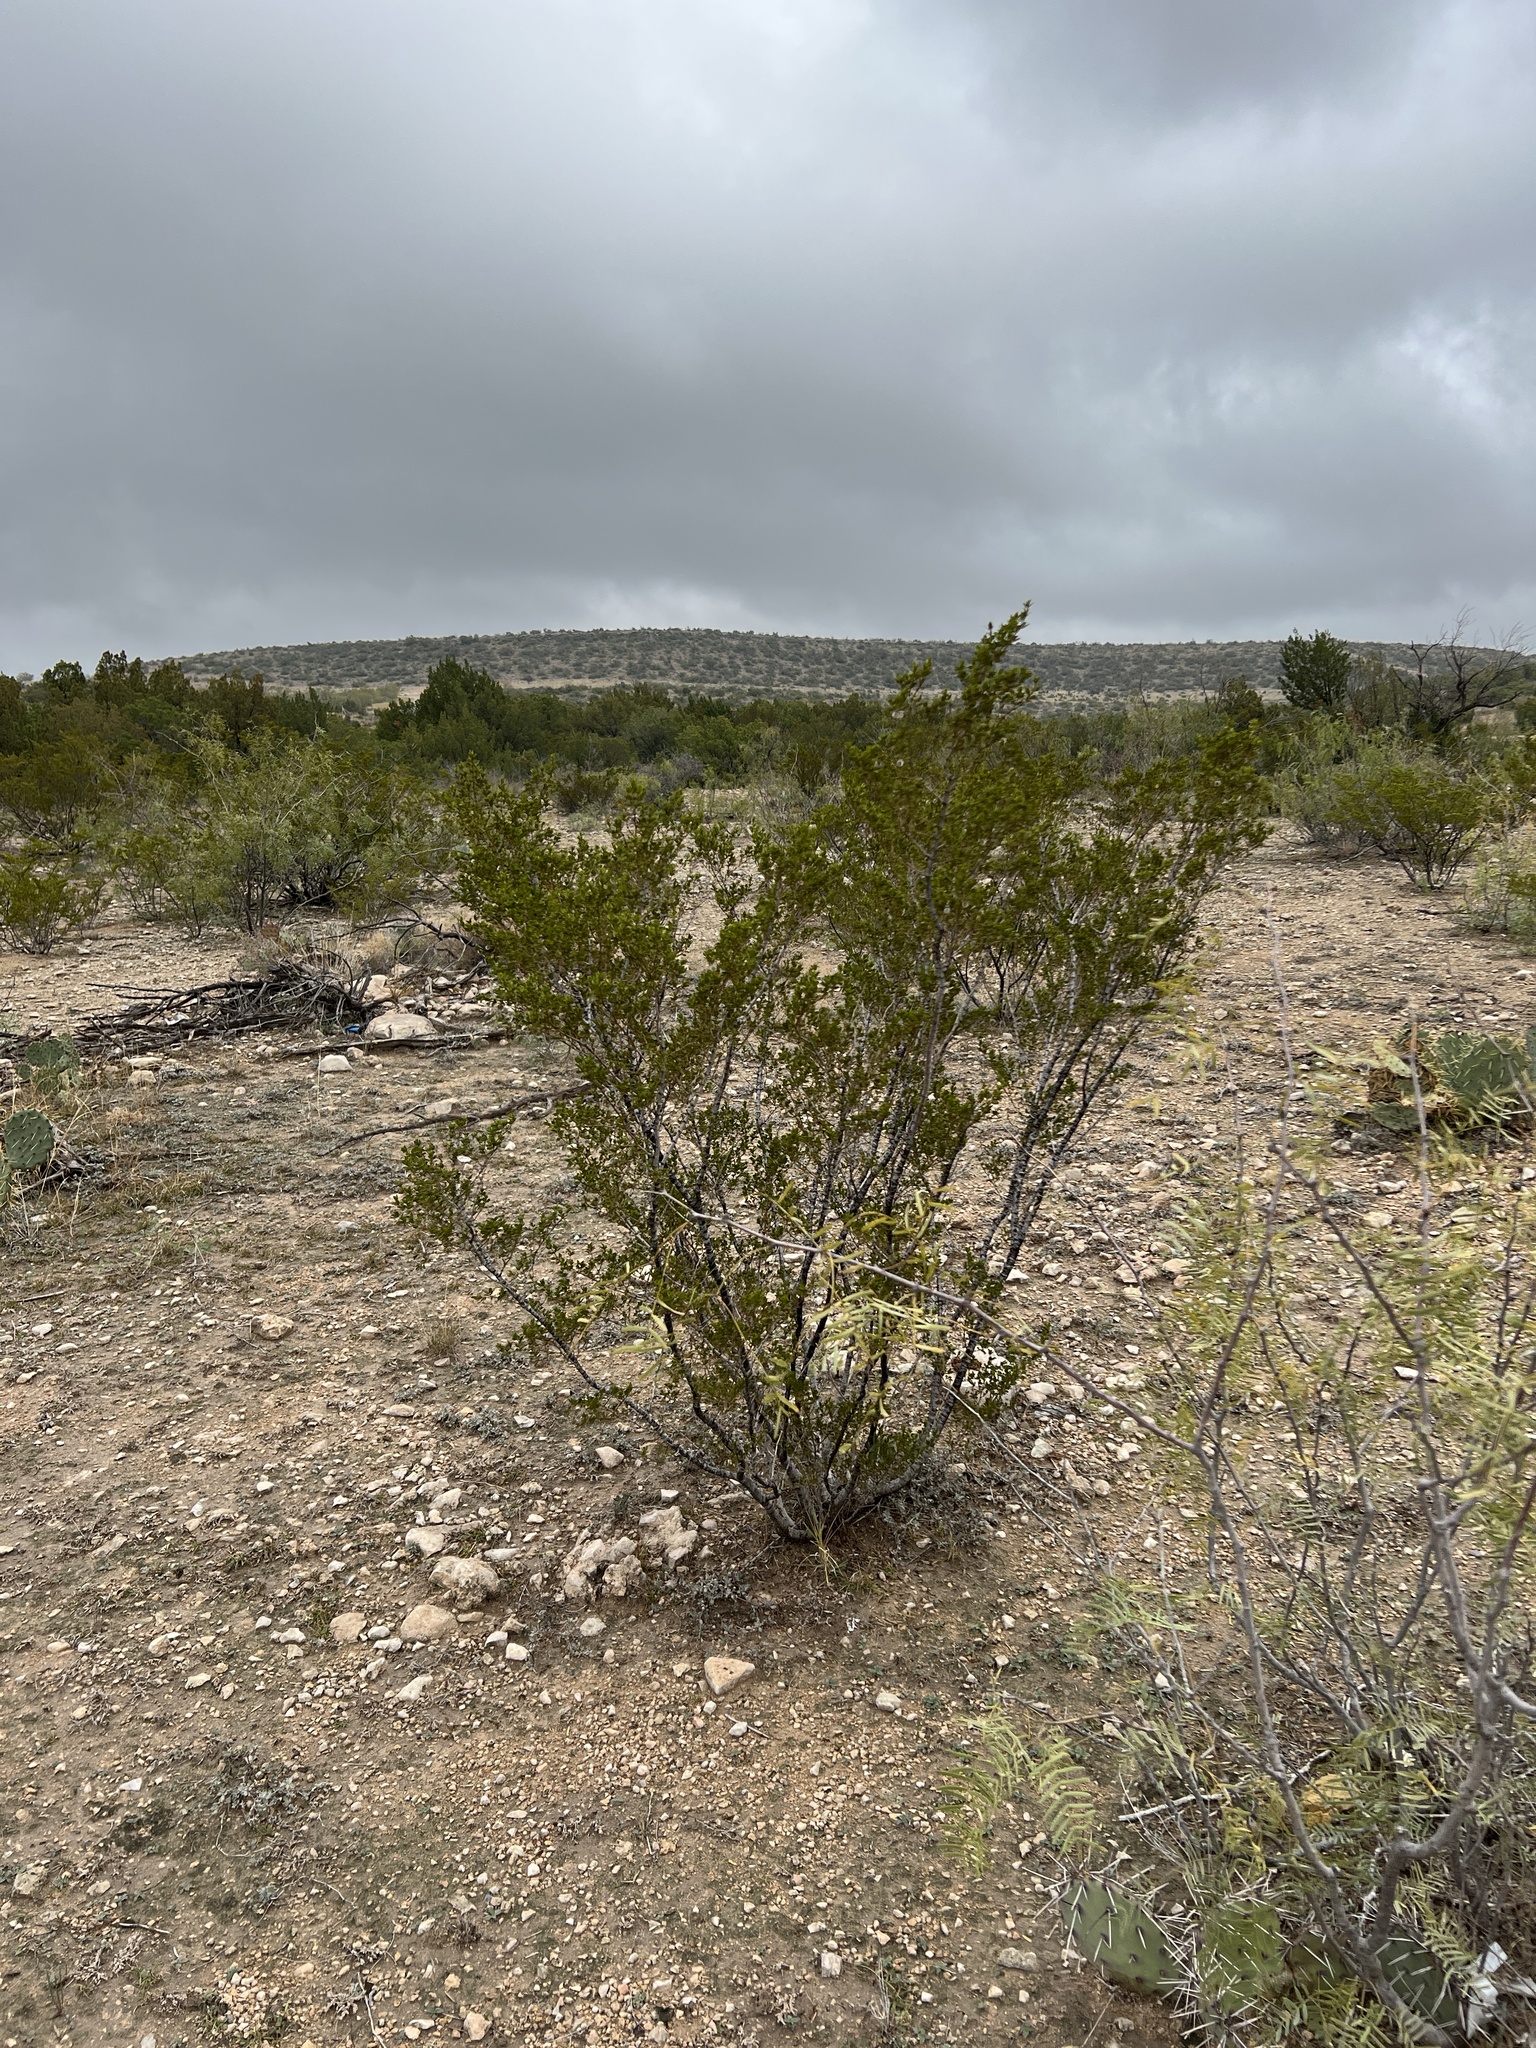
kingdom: Plantae
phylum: Tracheophyta
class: Magnoliopsida
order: Zygophyllales
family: Zygophyllaceae
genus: Larrea
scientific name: Larrea tridentata
